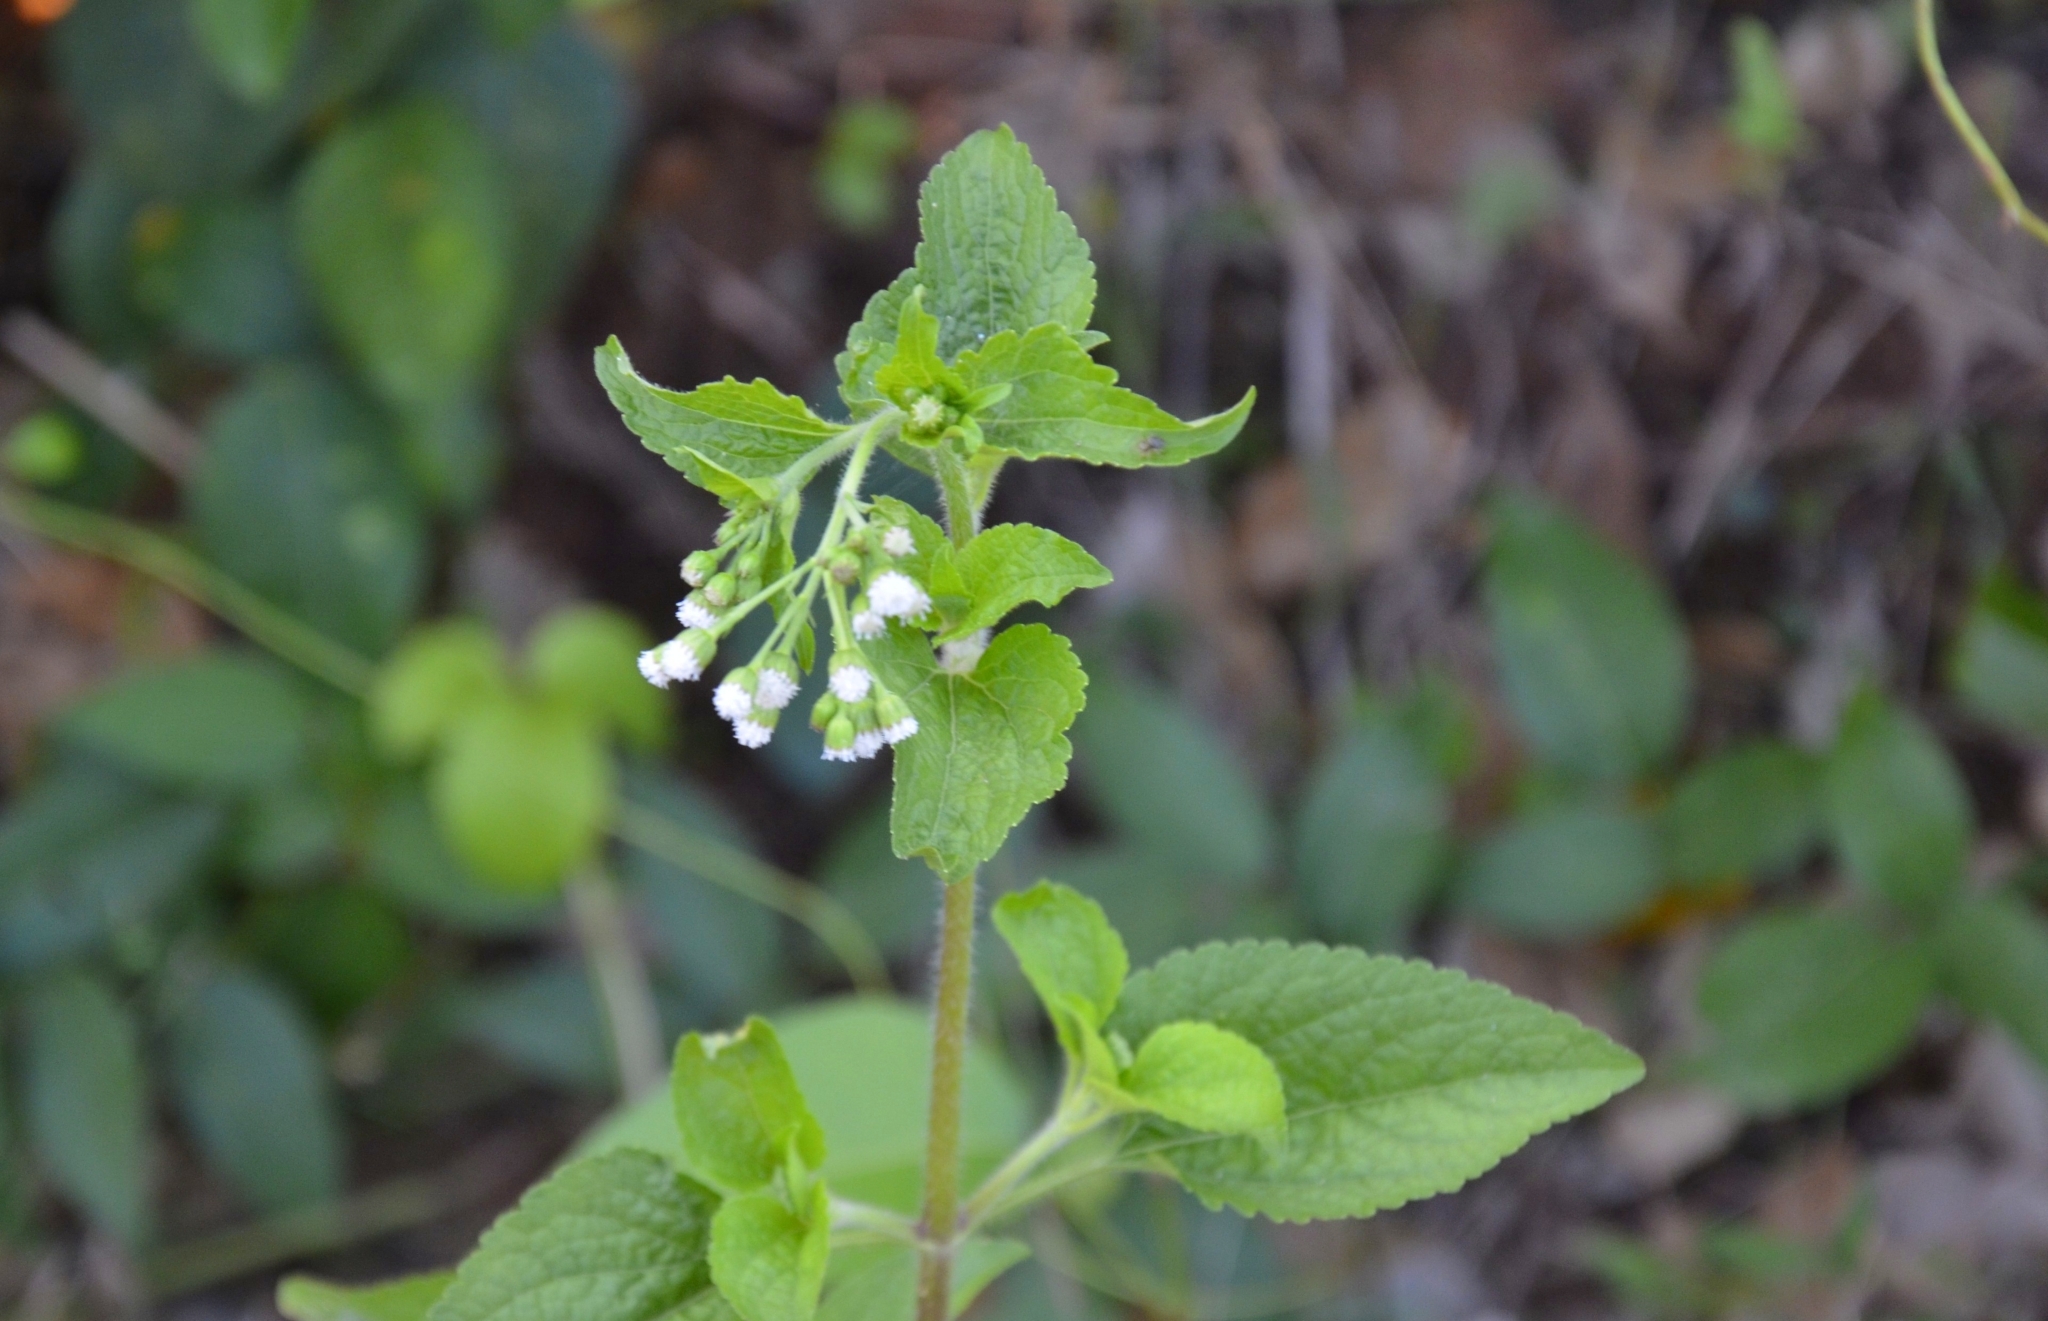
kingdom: Plantae
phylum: Tracheophyta
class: Magnoliopsida
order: Asterales
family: Asteraceae
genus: Ageratum
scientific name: Ageratum conyzoides
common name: Tropical whiteweed
